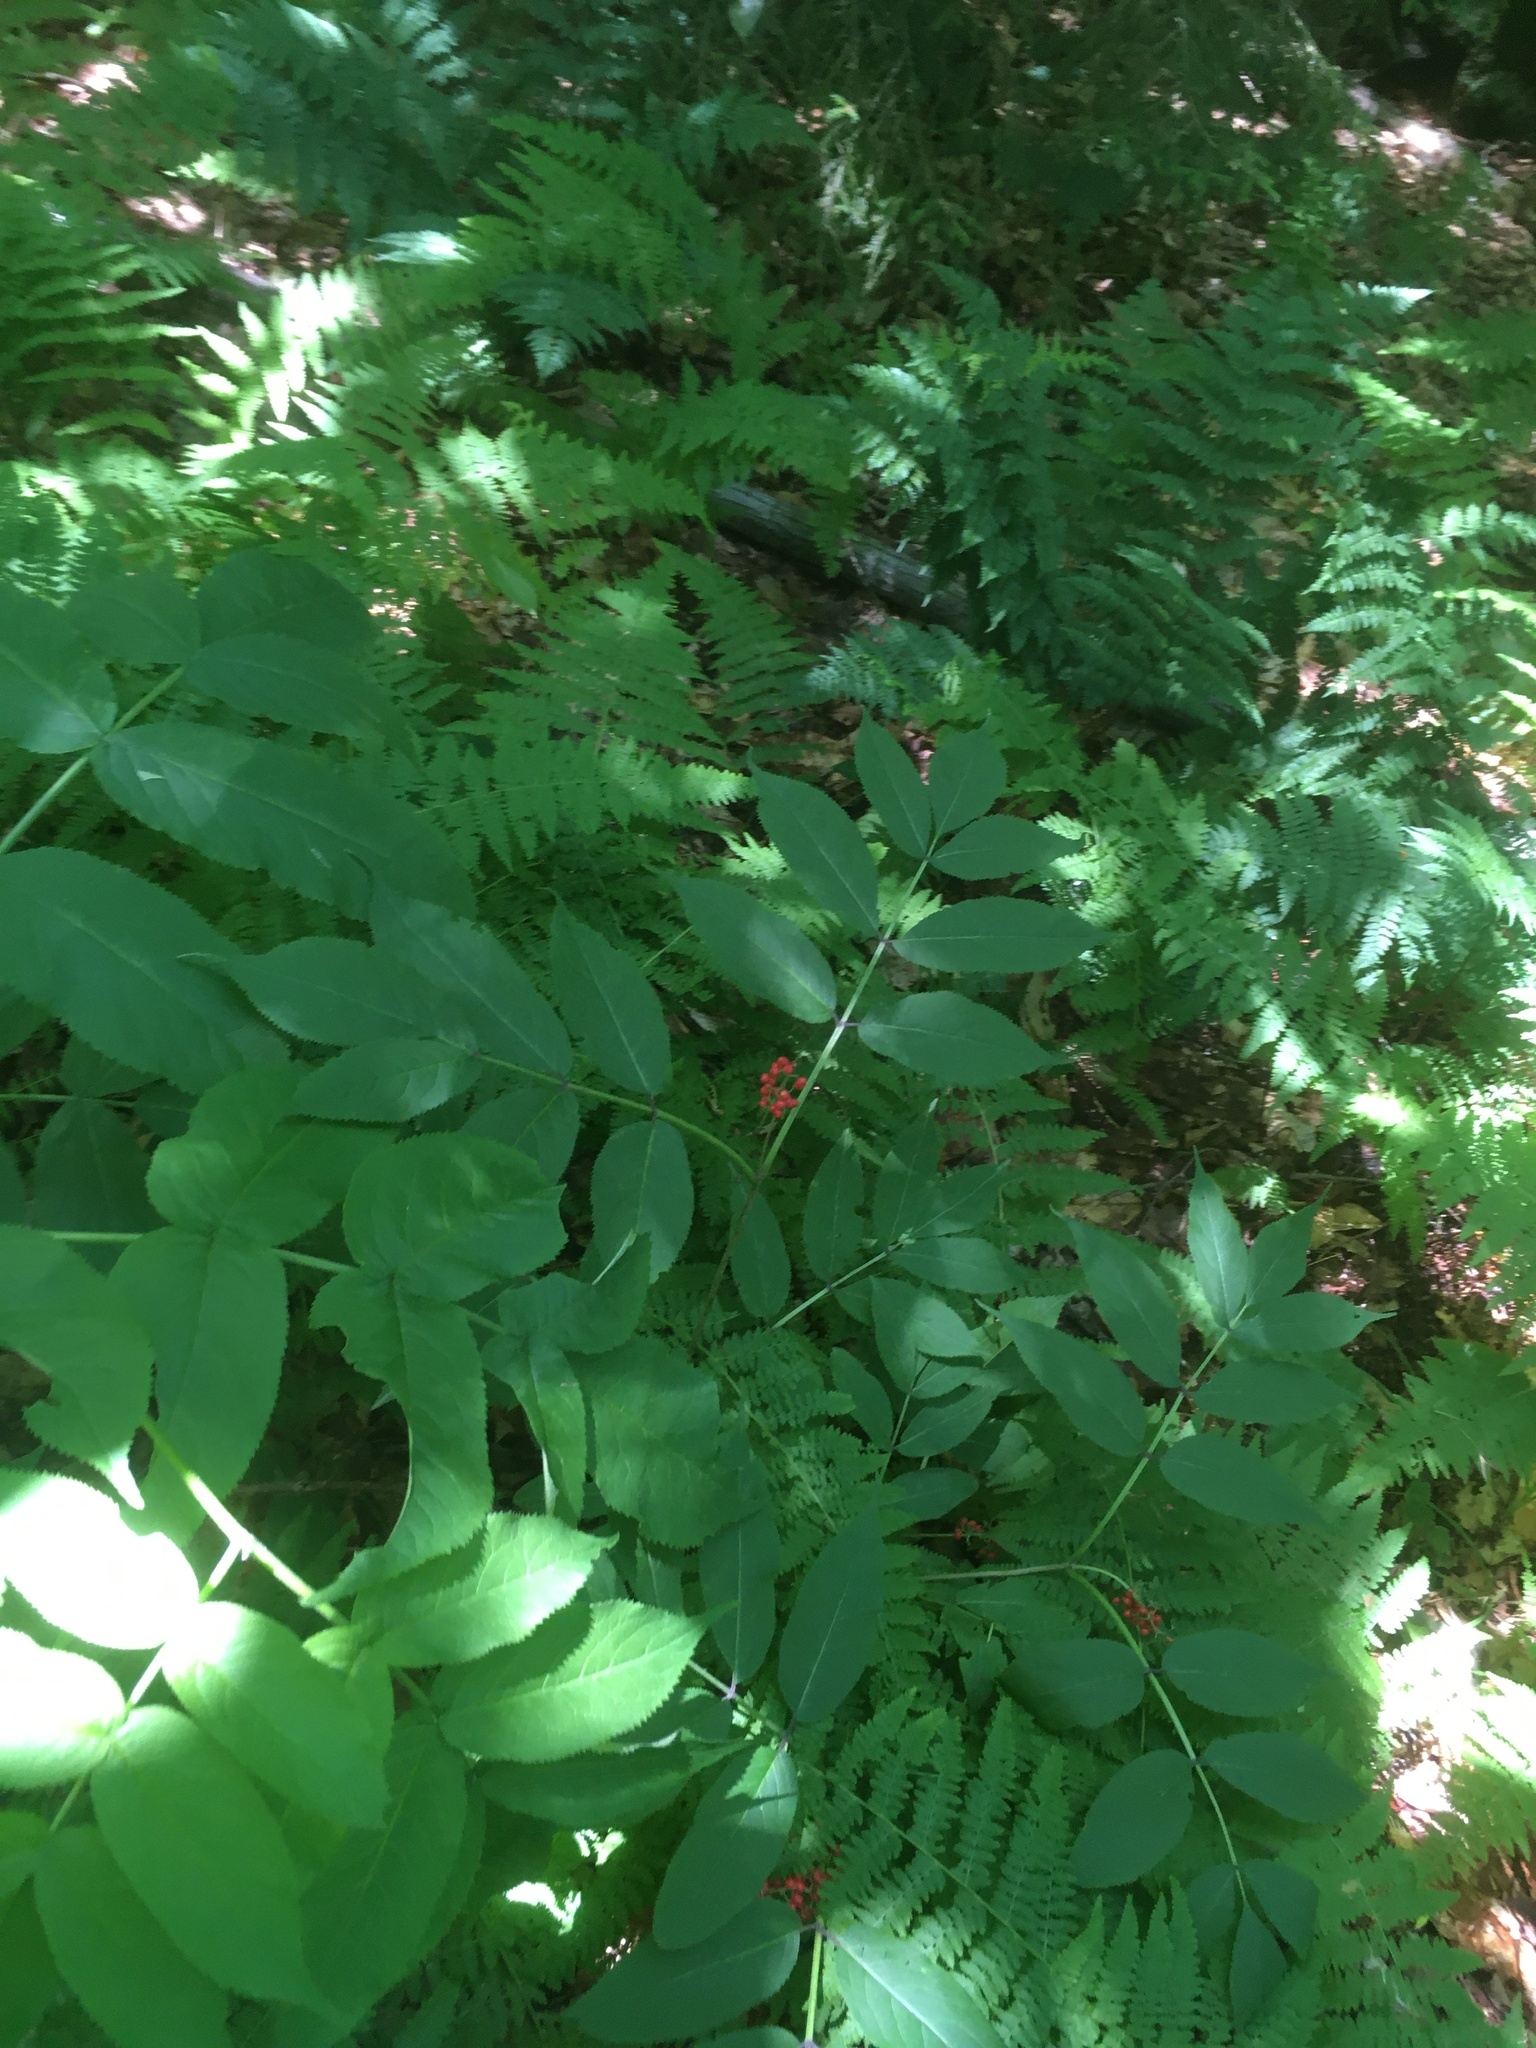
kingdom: Plantae
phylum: Tracheophyta
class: Magnoliopsida
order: Dipsacales
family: Viburnaceae
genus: Sambucus
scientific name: Sambucus racemosa
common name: Red-berried elder
